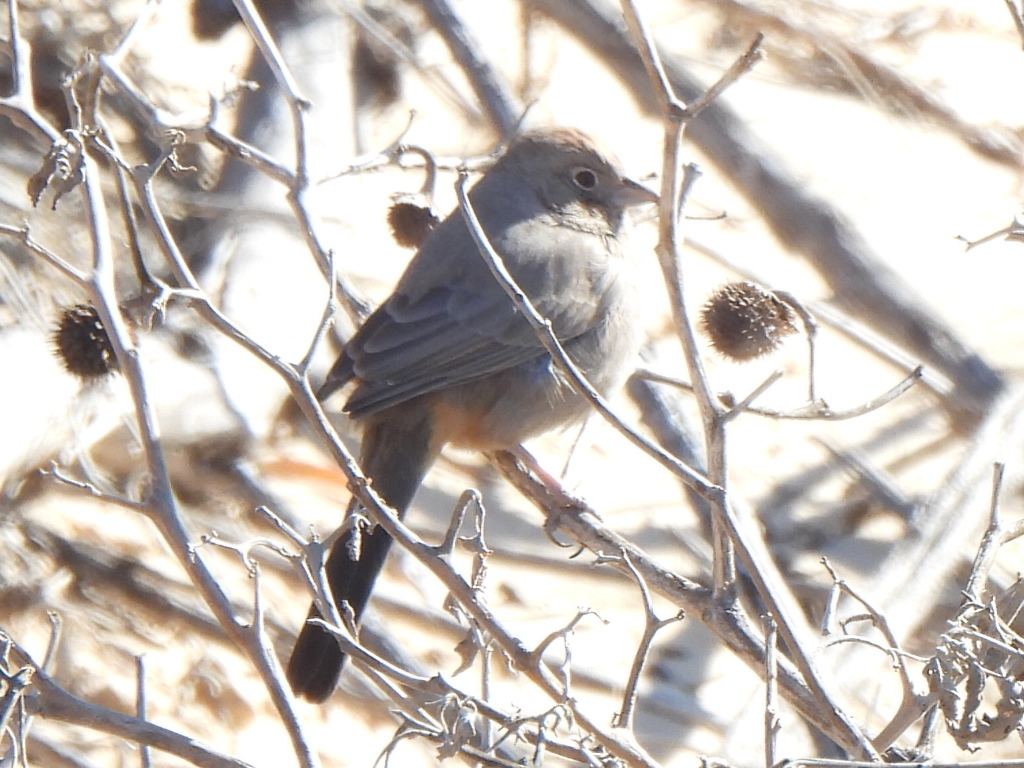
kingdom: Animalia
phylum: Chordata
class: Aves
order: Passeriformes
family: Passerellidae
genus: Melozone
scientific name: Melozone fusca
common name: Canyon towhee
